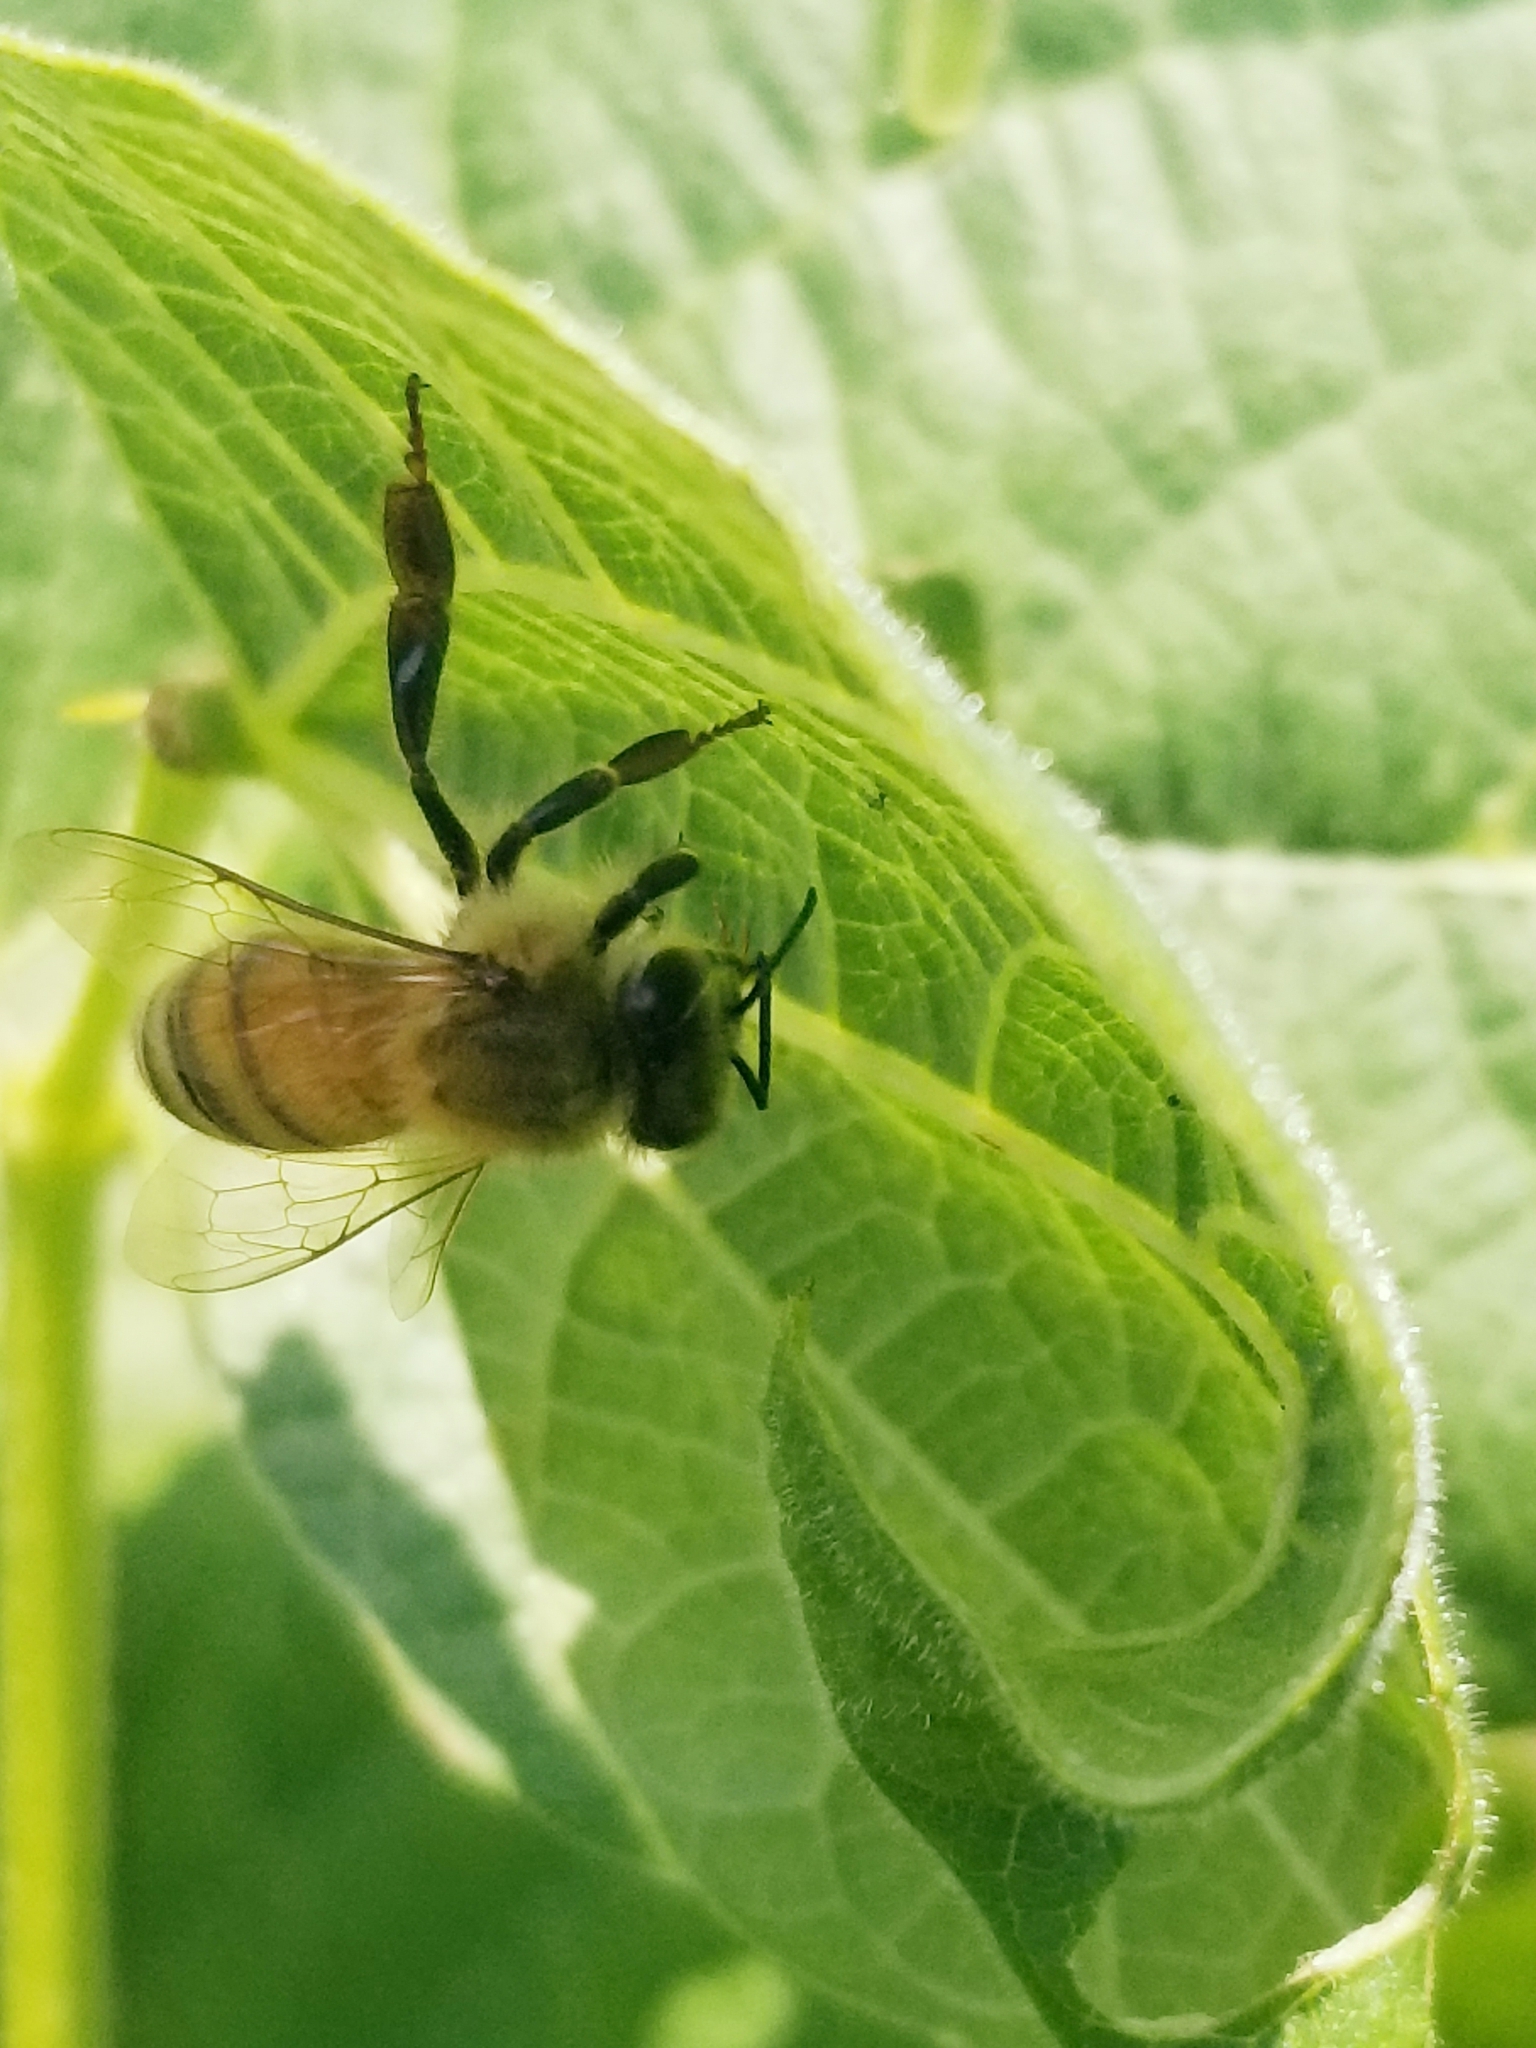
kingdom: Animalia
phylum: Arthropoda
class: Insecta
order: Hymenoptera
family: Apidae
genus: Apis
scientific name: Apis mellifera
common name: Honey bee
